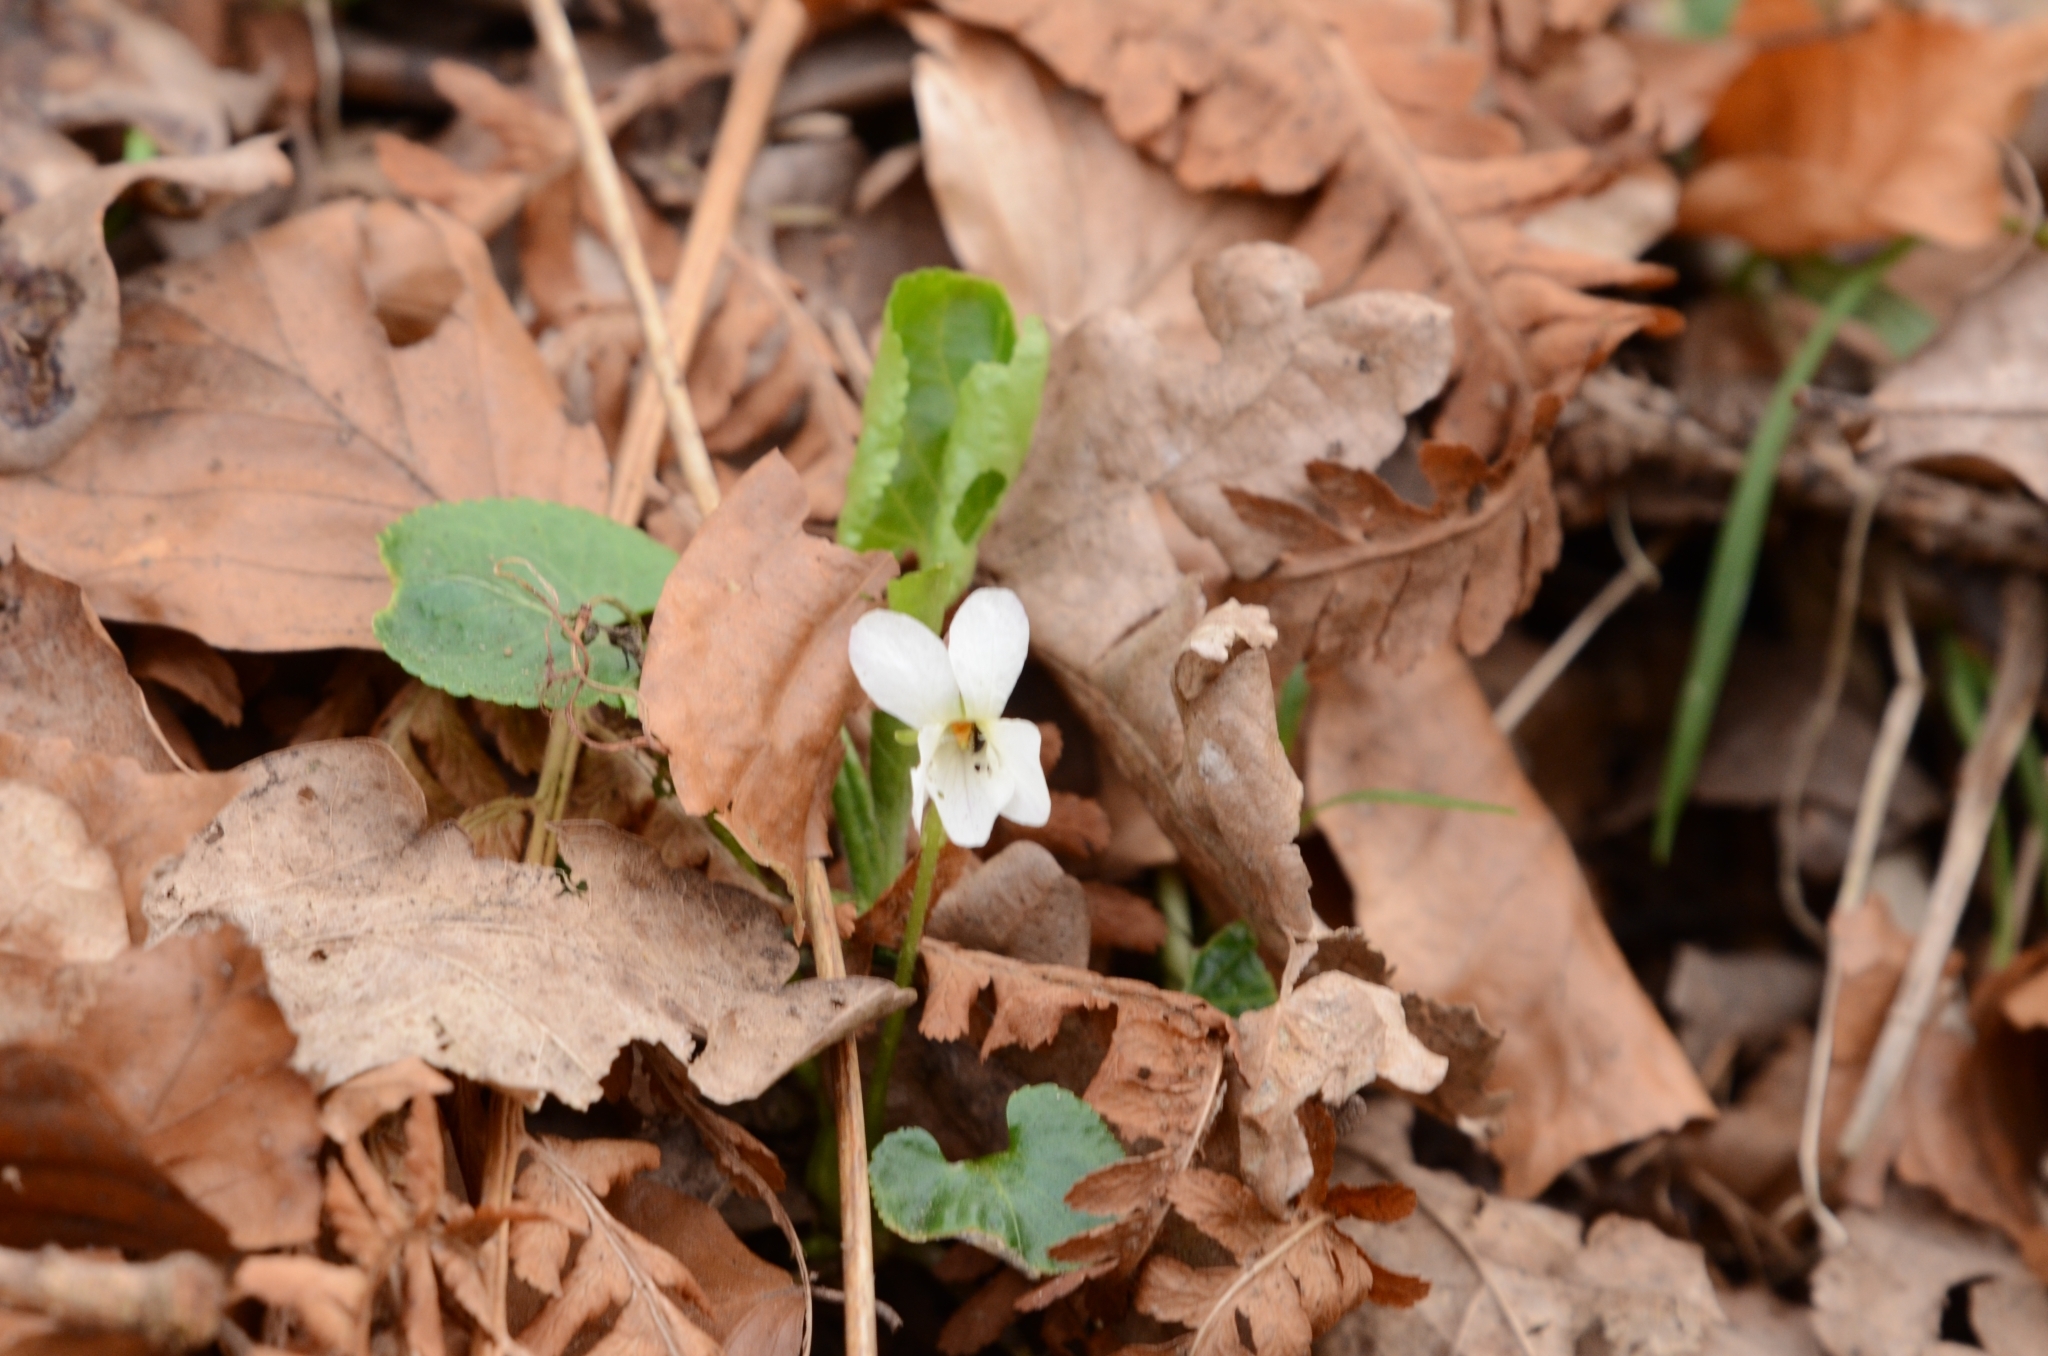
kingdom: Plantae
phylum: Tracheophyta
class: Magnoliopsida
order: Malpighiales
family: Violaceae
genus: Viola
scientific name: Viola alba
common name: White violet
